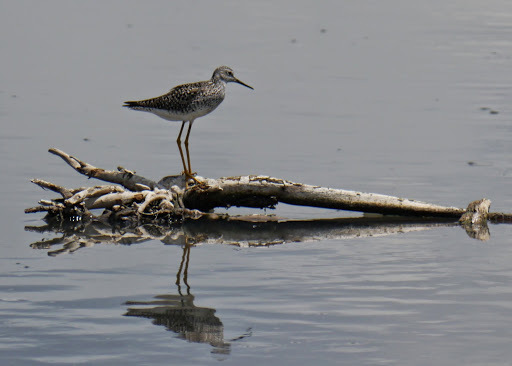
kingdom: Animalia
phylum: Chordata
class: Aves
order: Charadriiformes
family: Scolopacidae
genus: Tringa
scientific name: Tringa melanoleuca
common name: Greater yellowlegs
